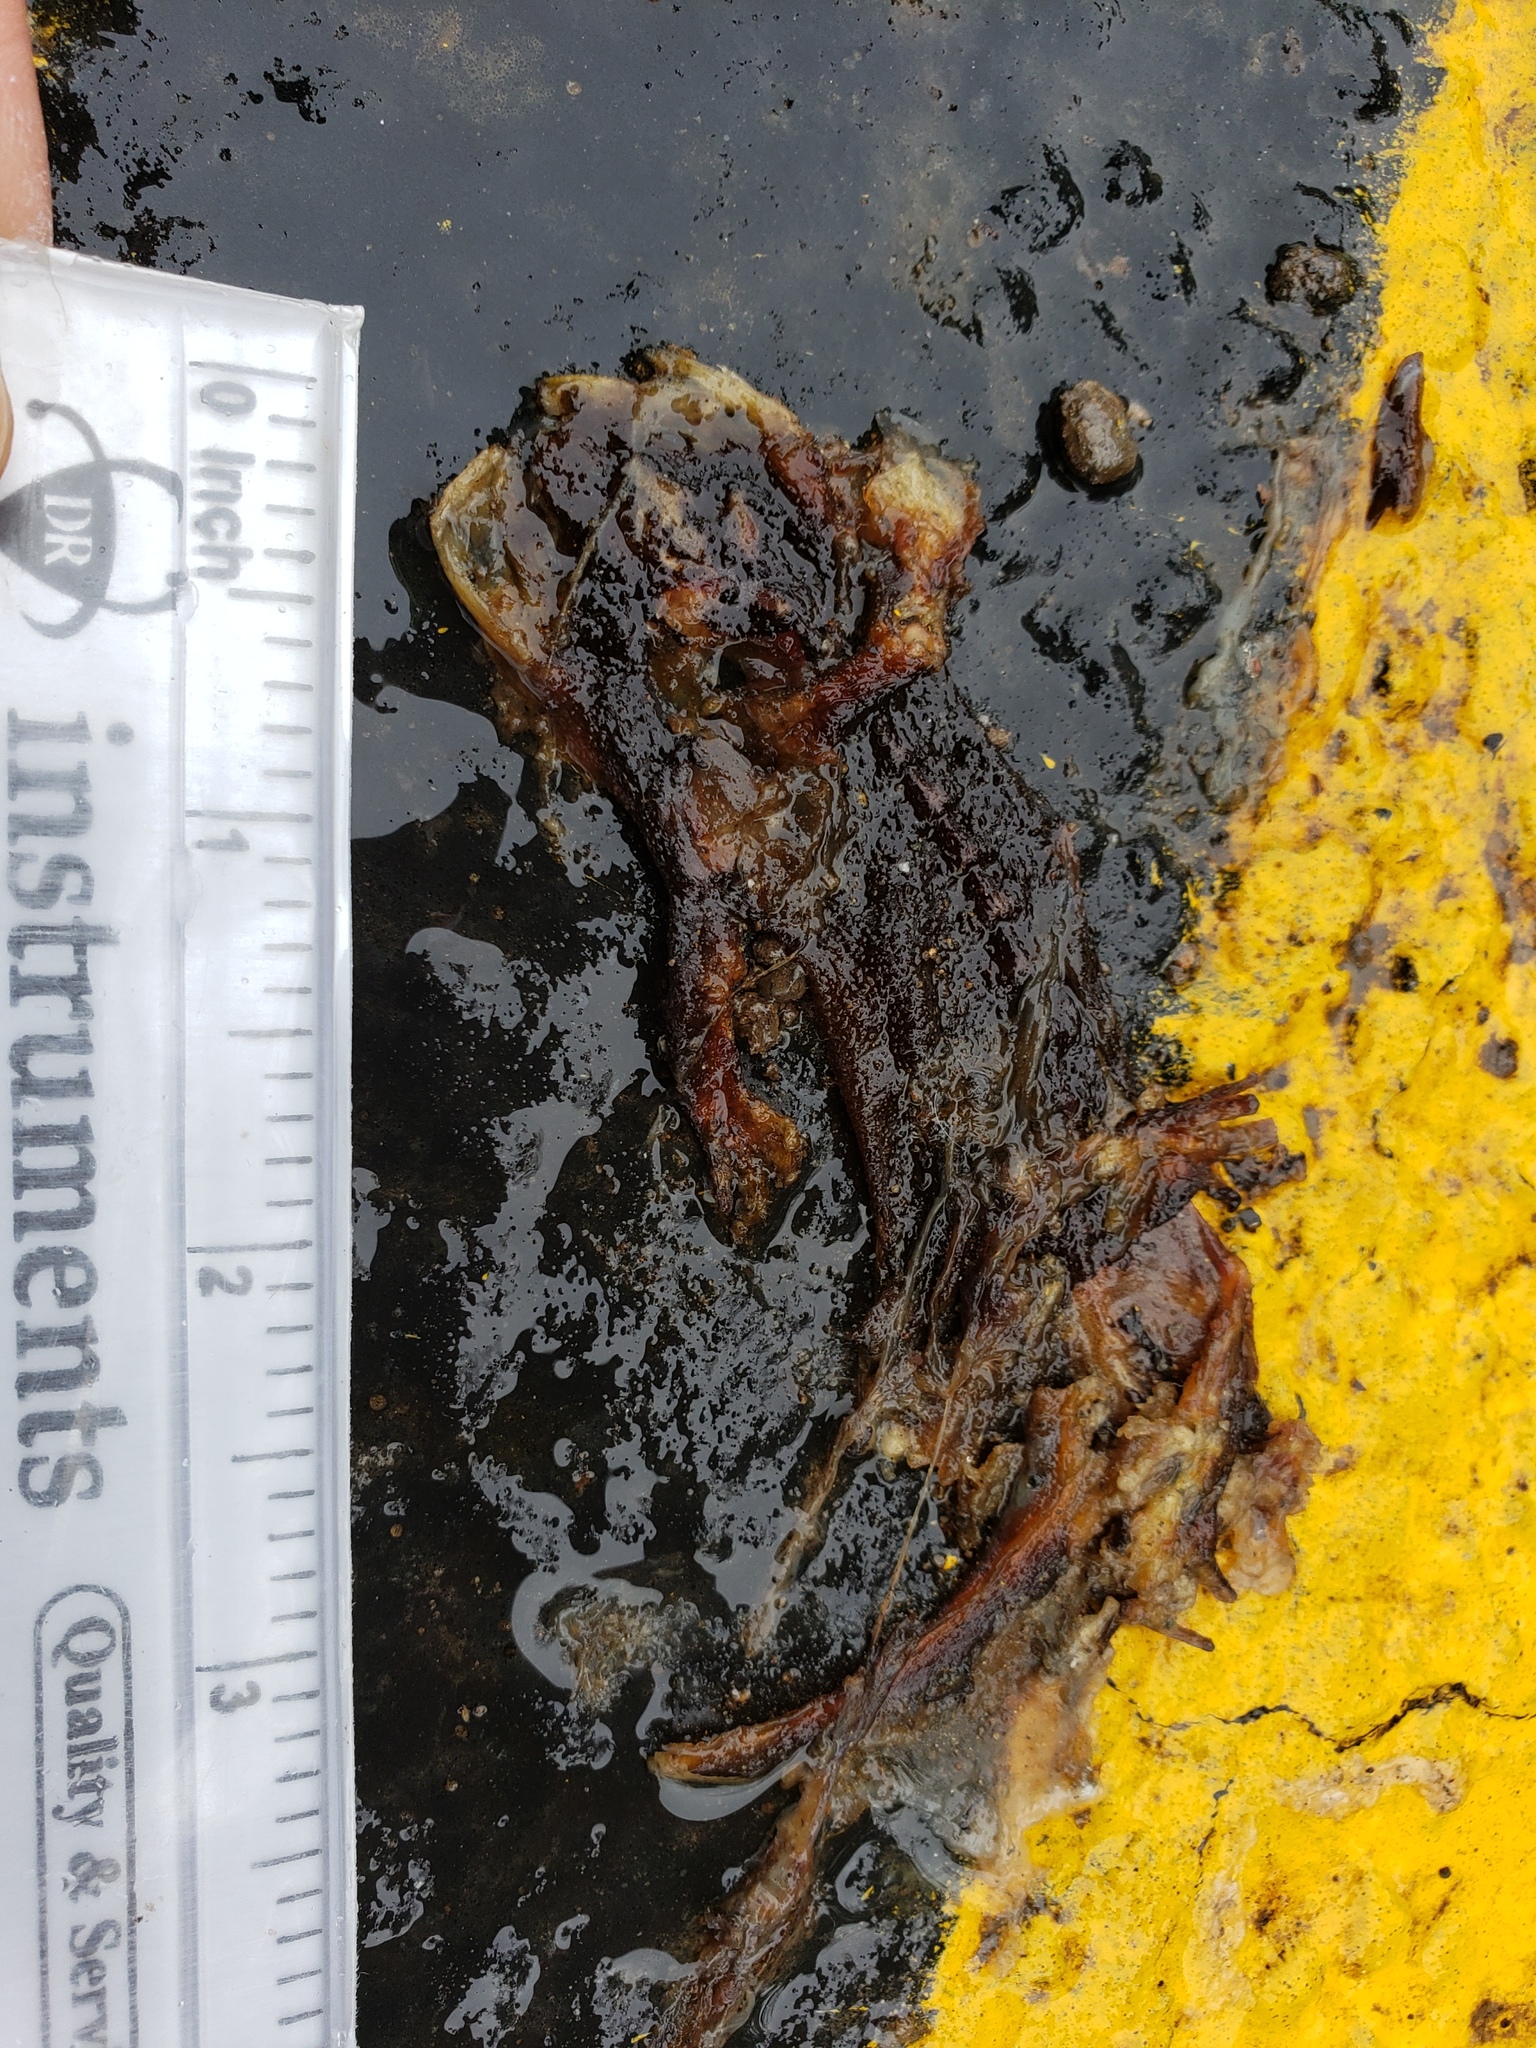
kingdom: Animalia
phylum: Chordata
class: Amphibia
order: Caudata
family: Salamandridae
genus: Taricha
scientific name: Taricha
